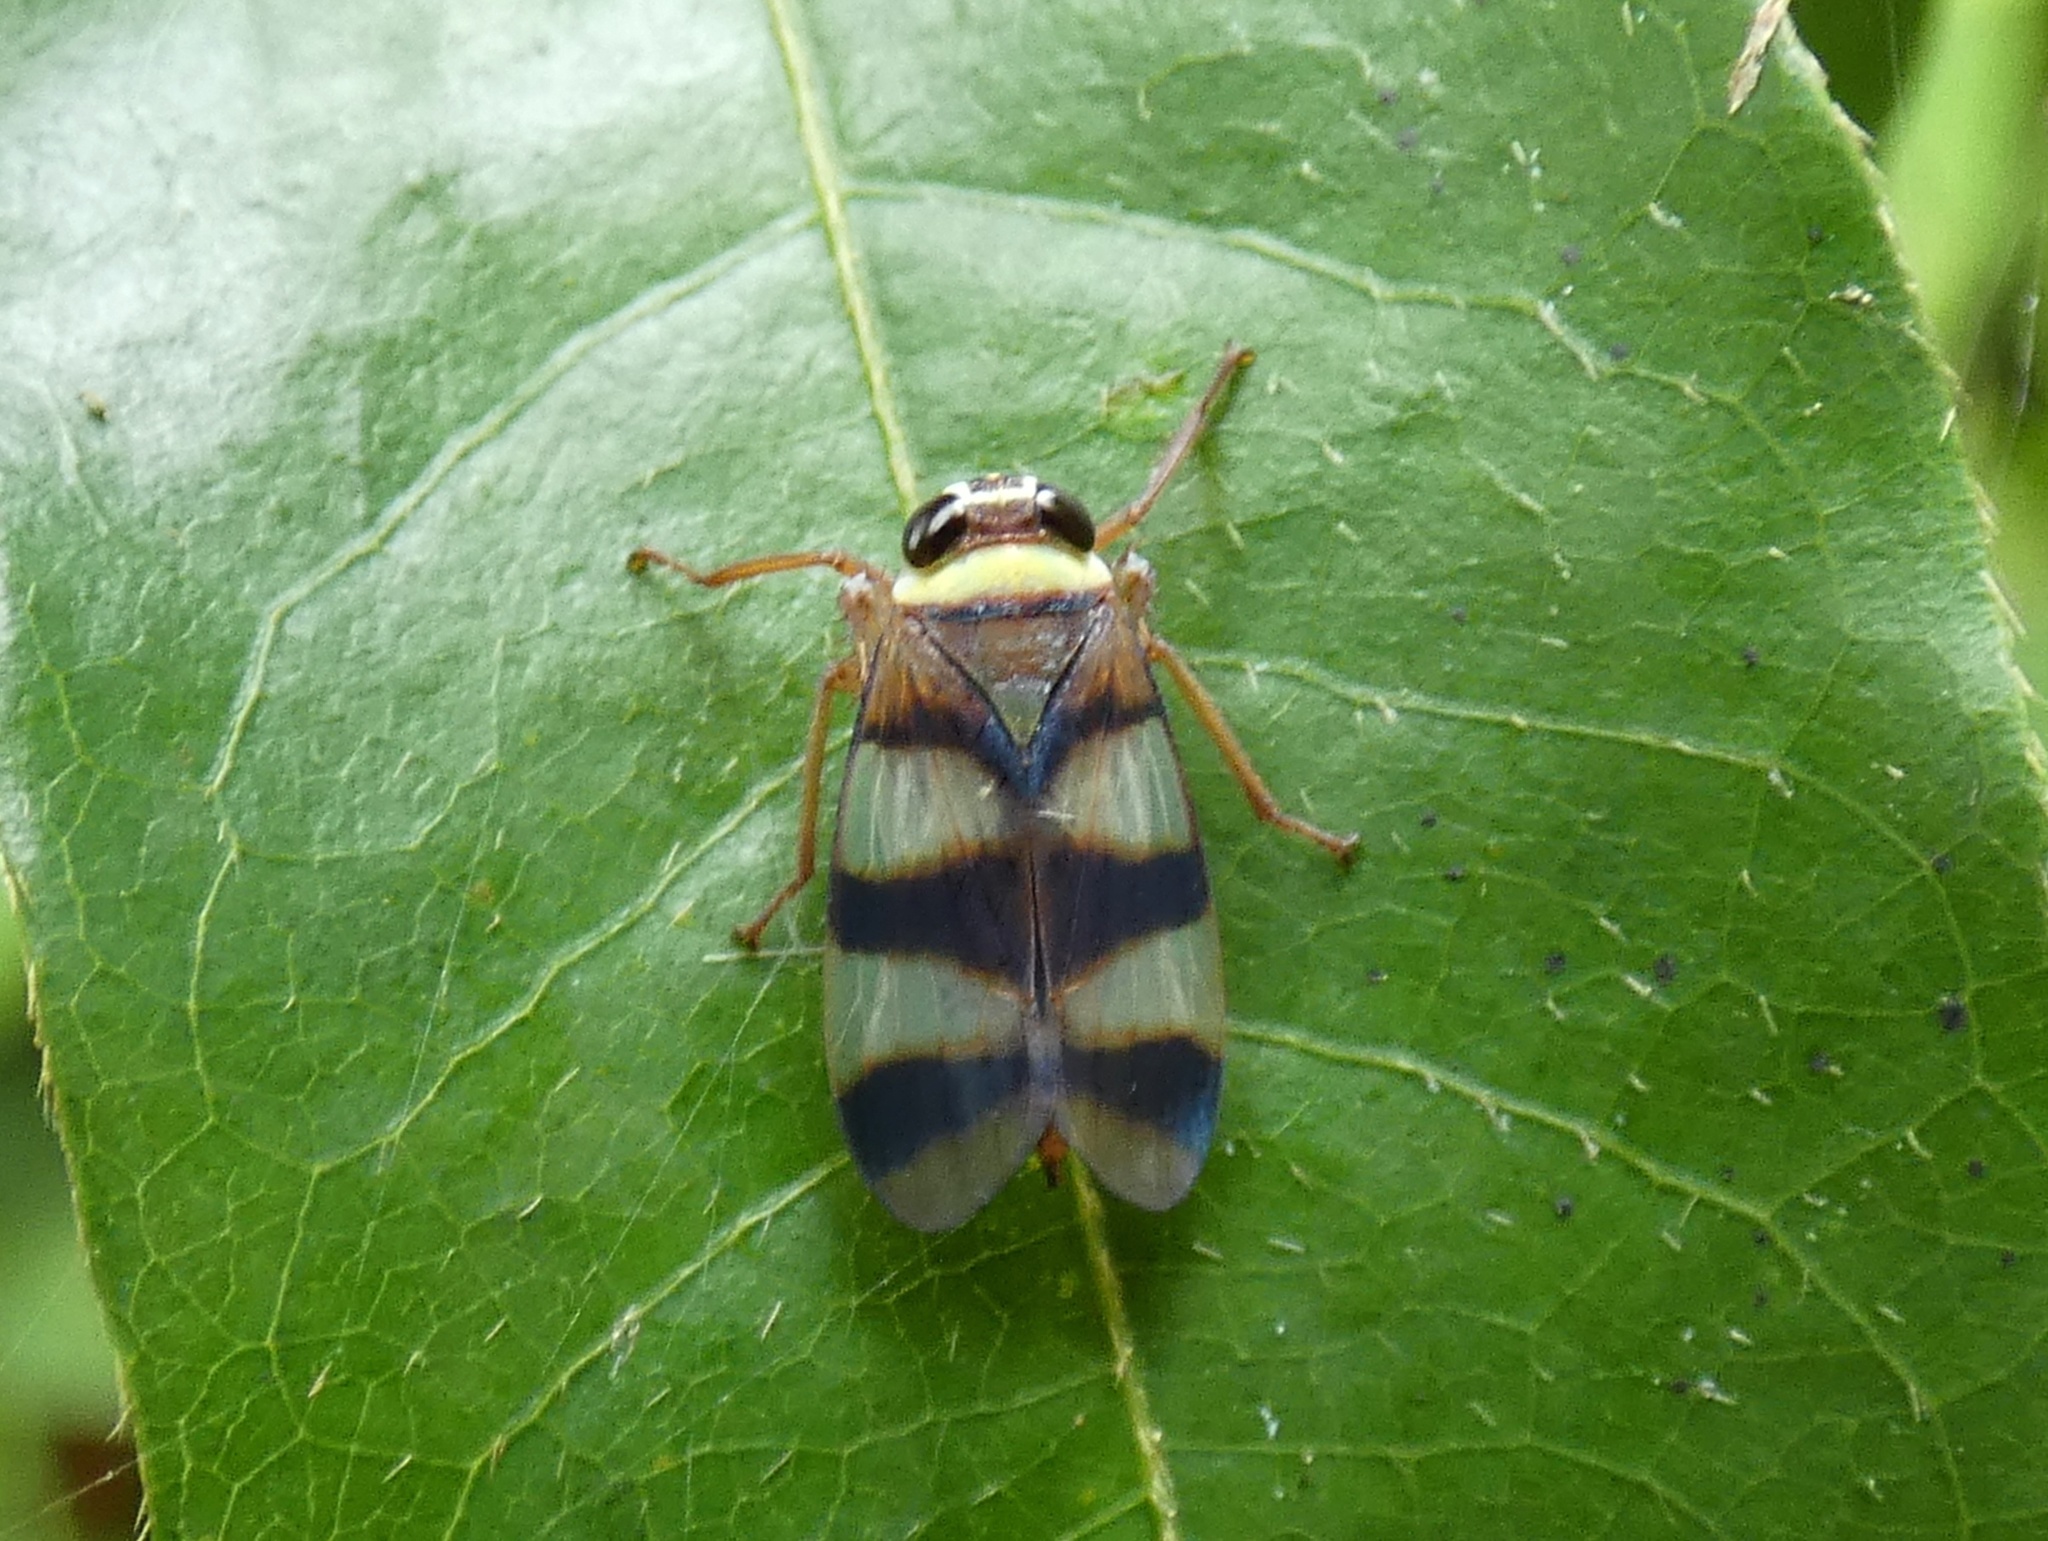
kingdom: Animalia
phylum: Arthropoda
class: Insecta
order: Hemiptera
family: Cicadellidae
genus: Licontinia
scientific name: Licontinia introducens
